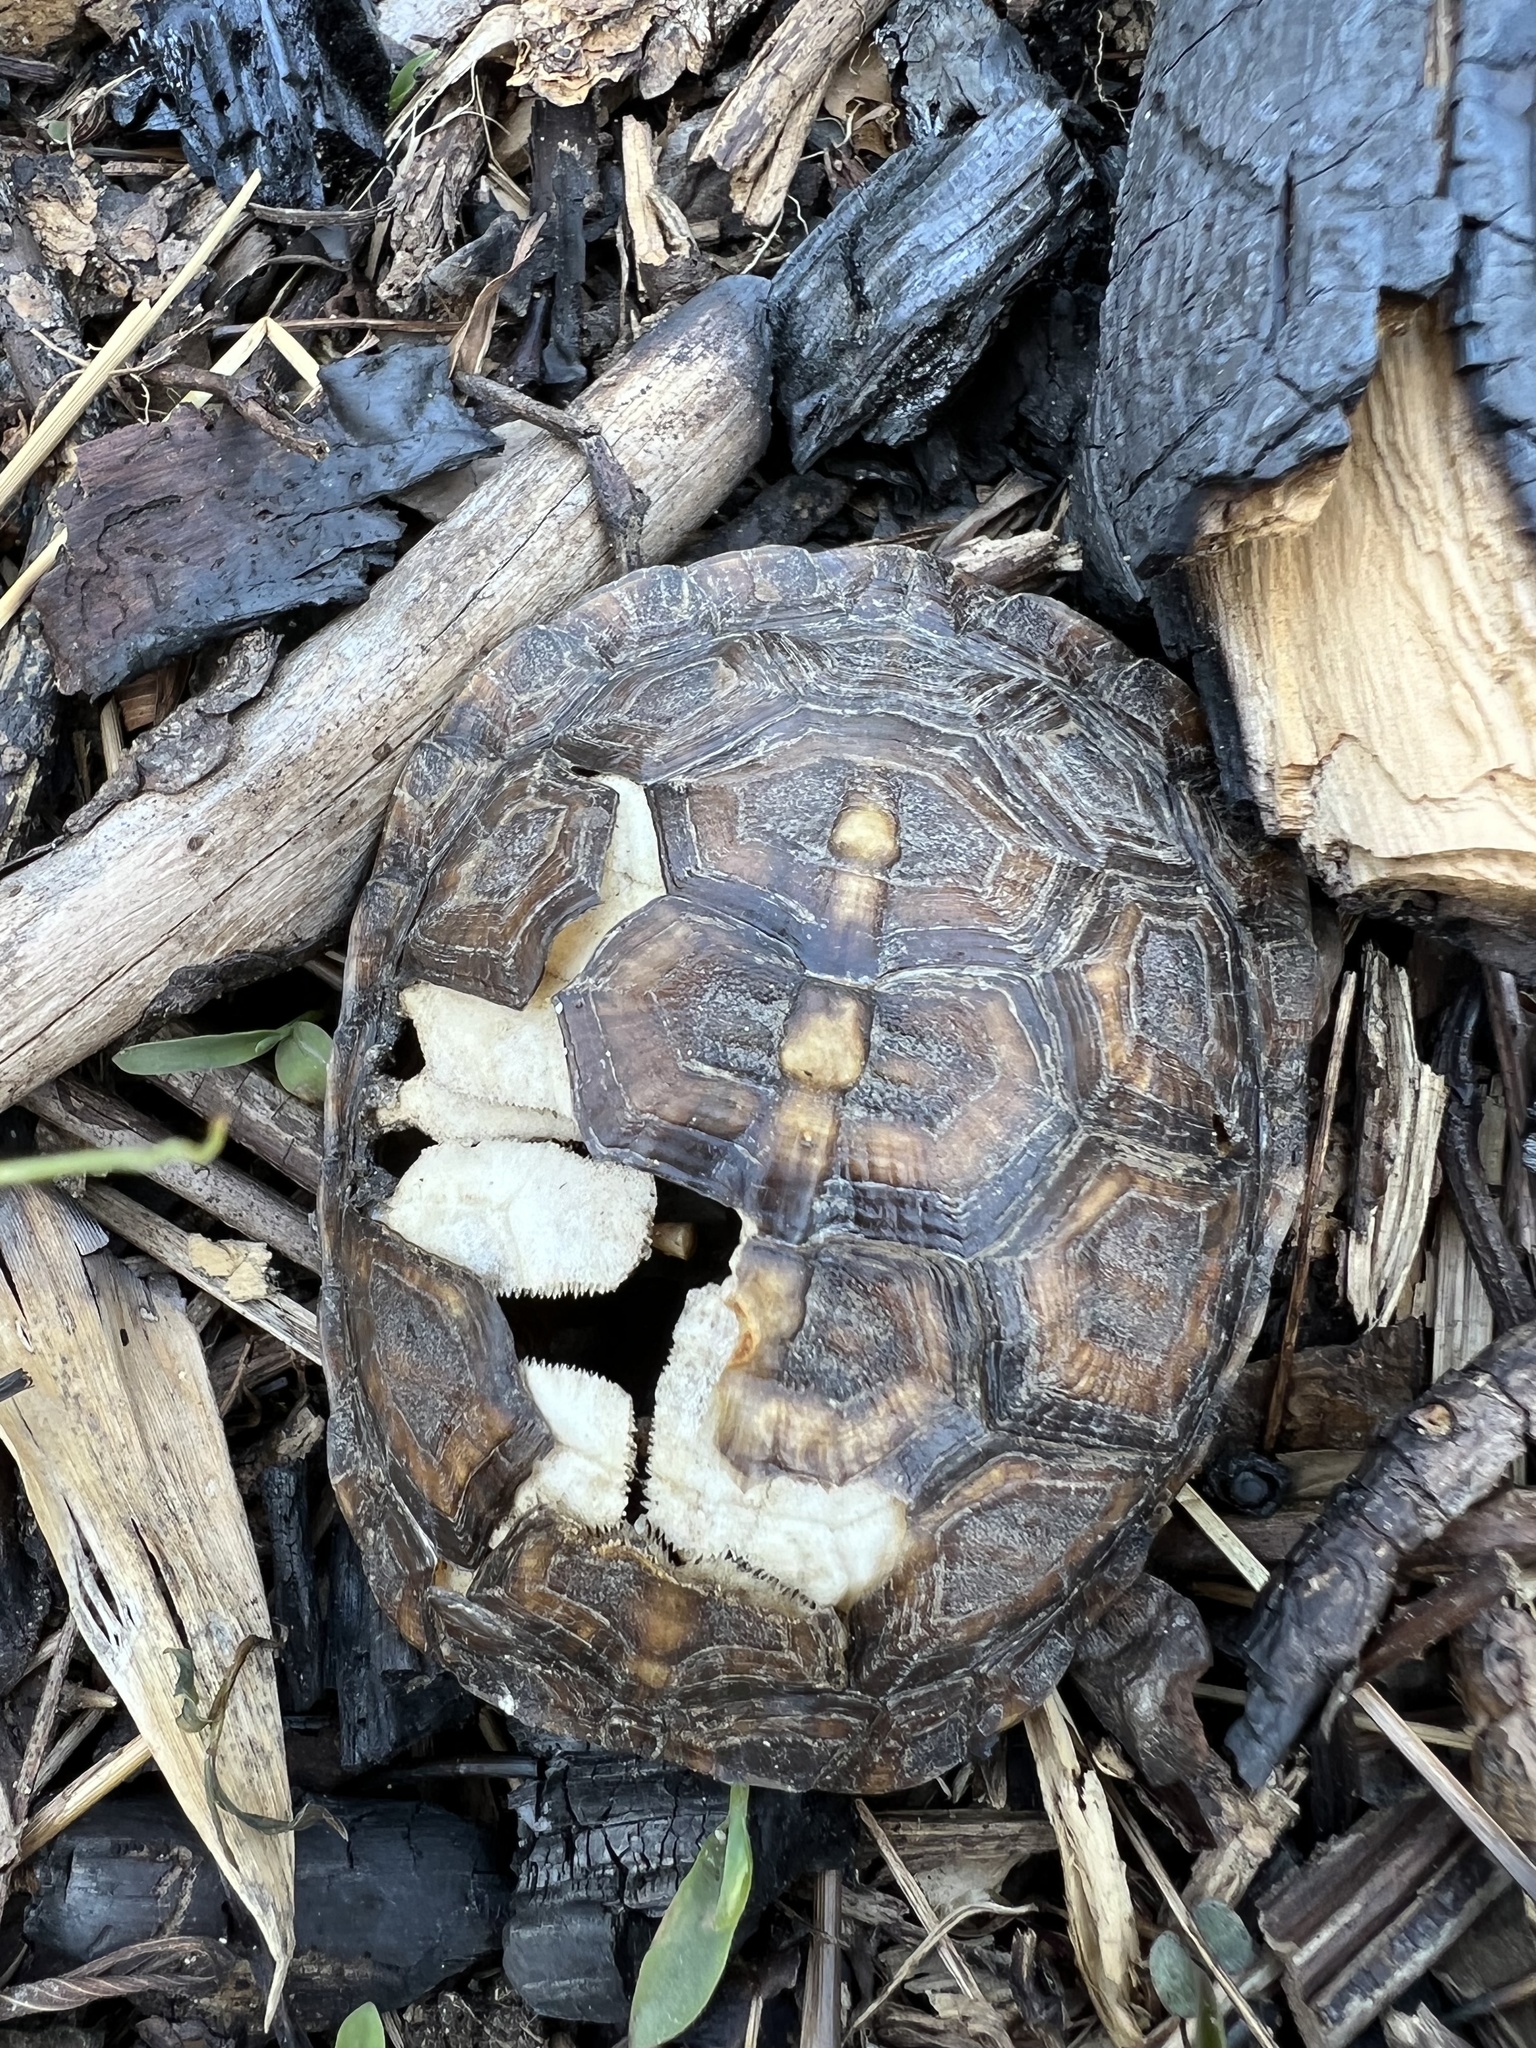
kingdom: Animalia
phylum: Chordata
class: Testudines
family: Emydidae
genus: Terrapene
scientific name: Terrapene carolina
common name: Common box turtle
